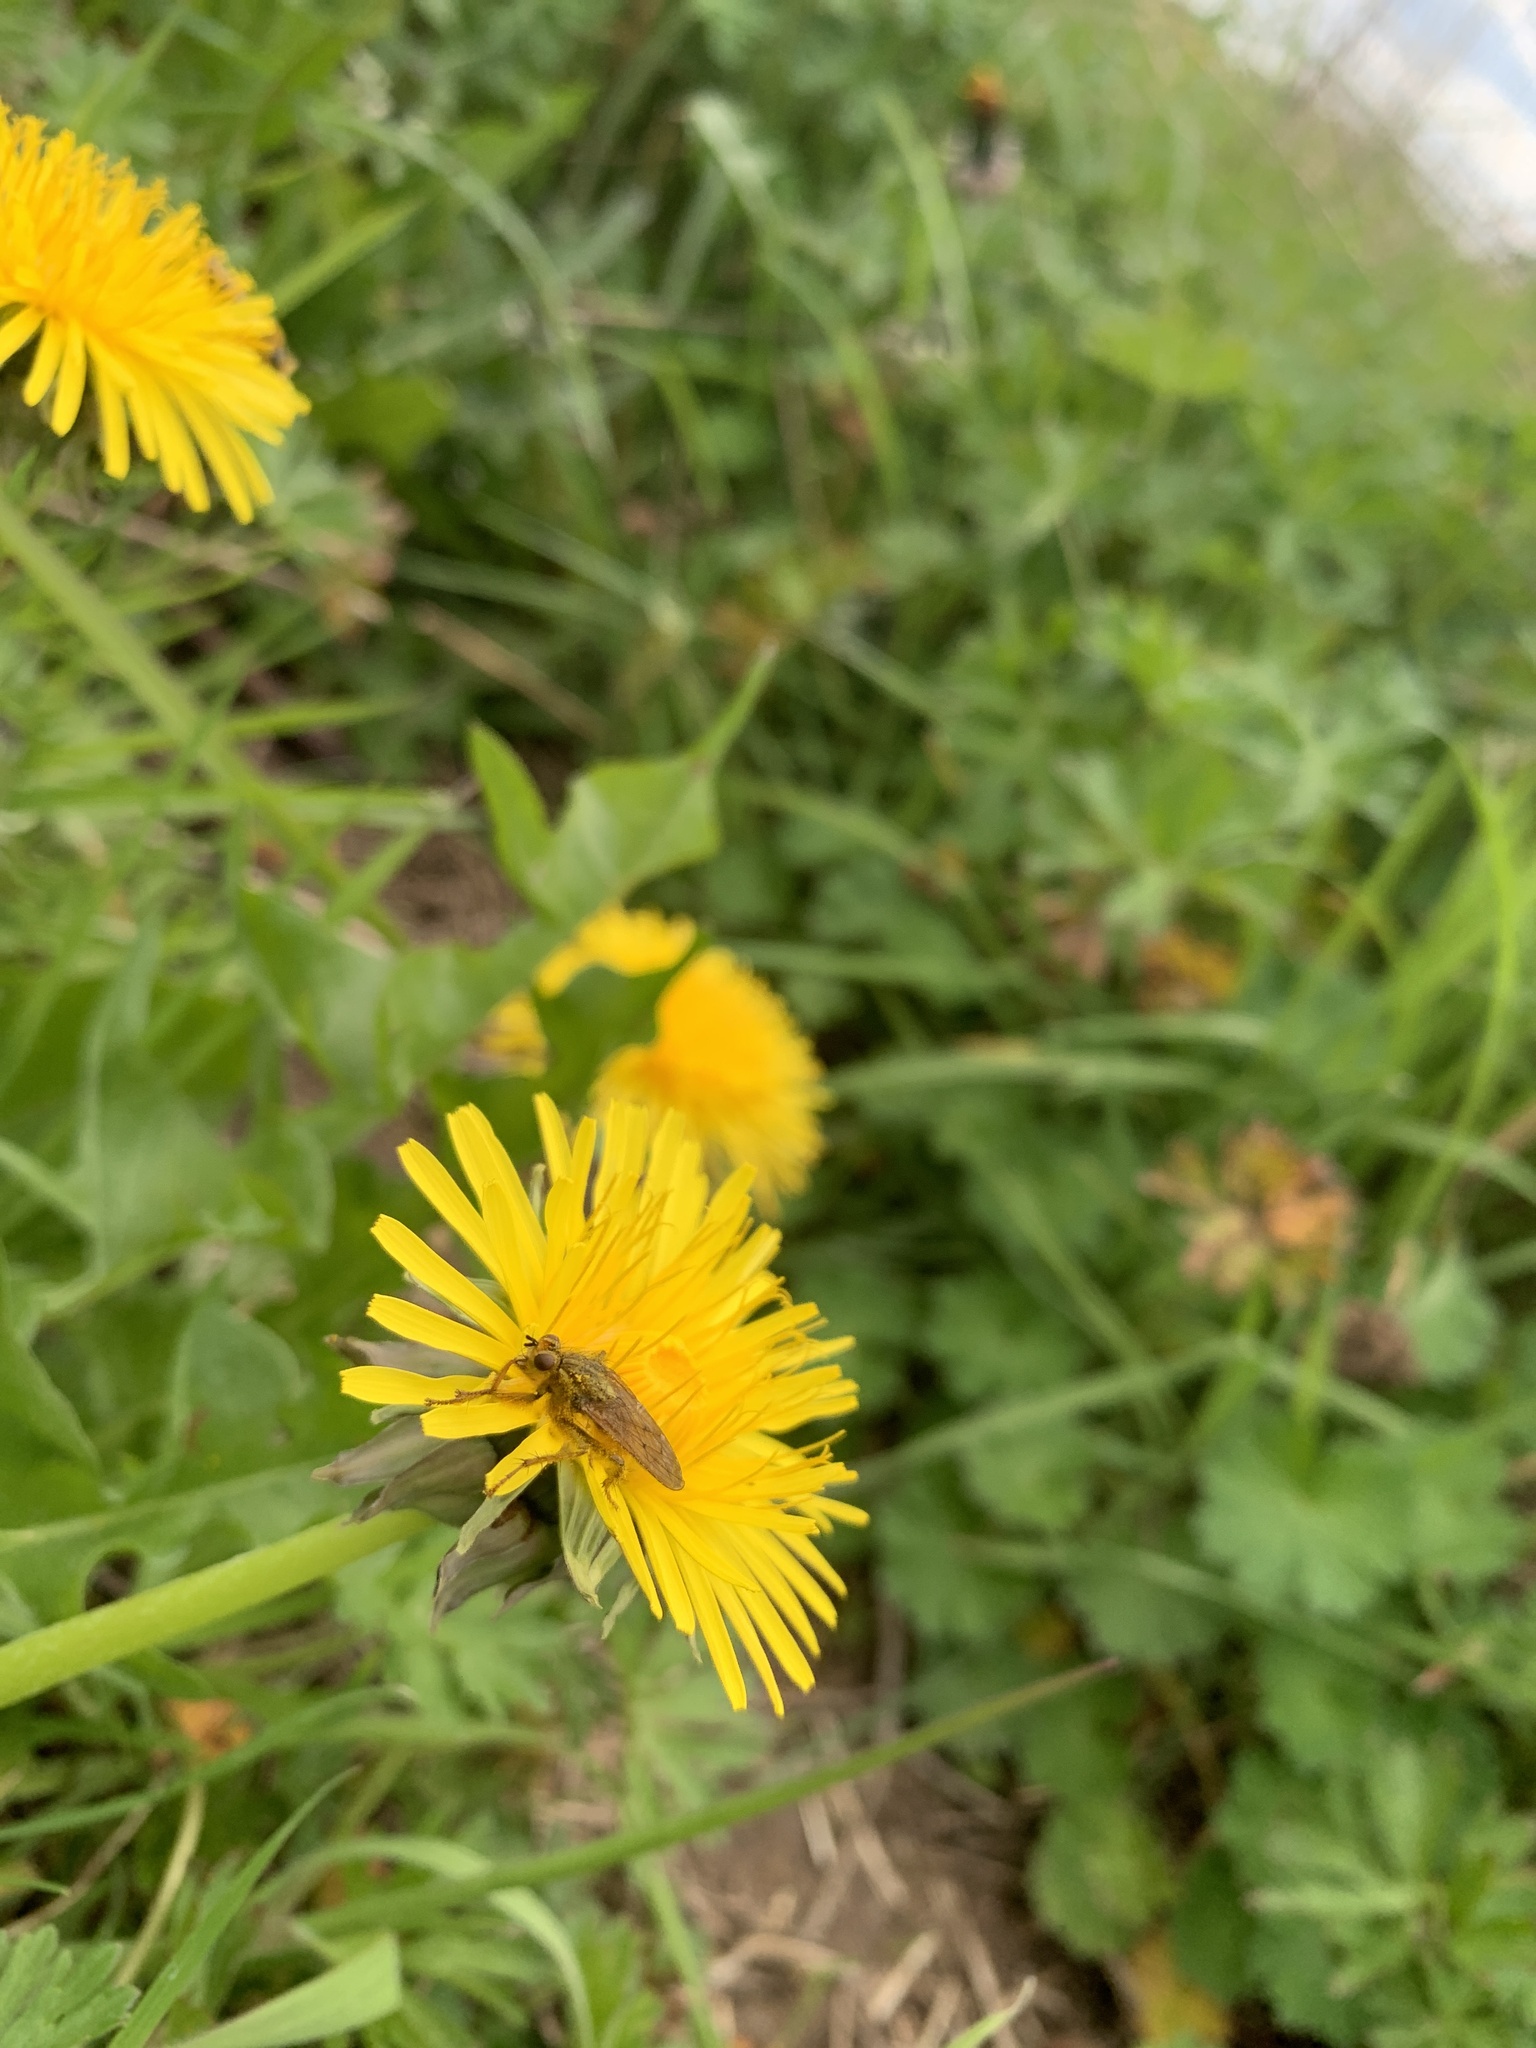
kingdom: Animalia
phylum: Arthropoda
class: Insecta
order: Diptera
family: Scathophagidae
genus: Scathophaga
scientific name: Scathophaga stercoraria
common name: Yellow dung fly
